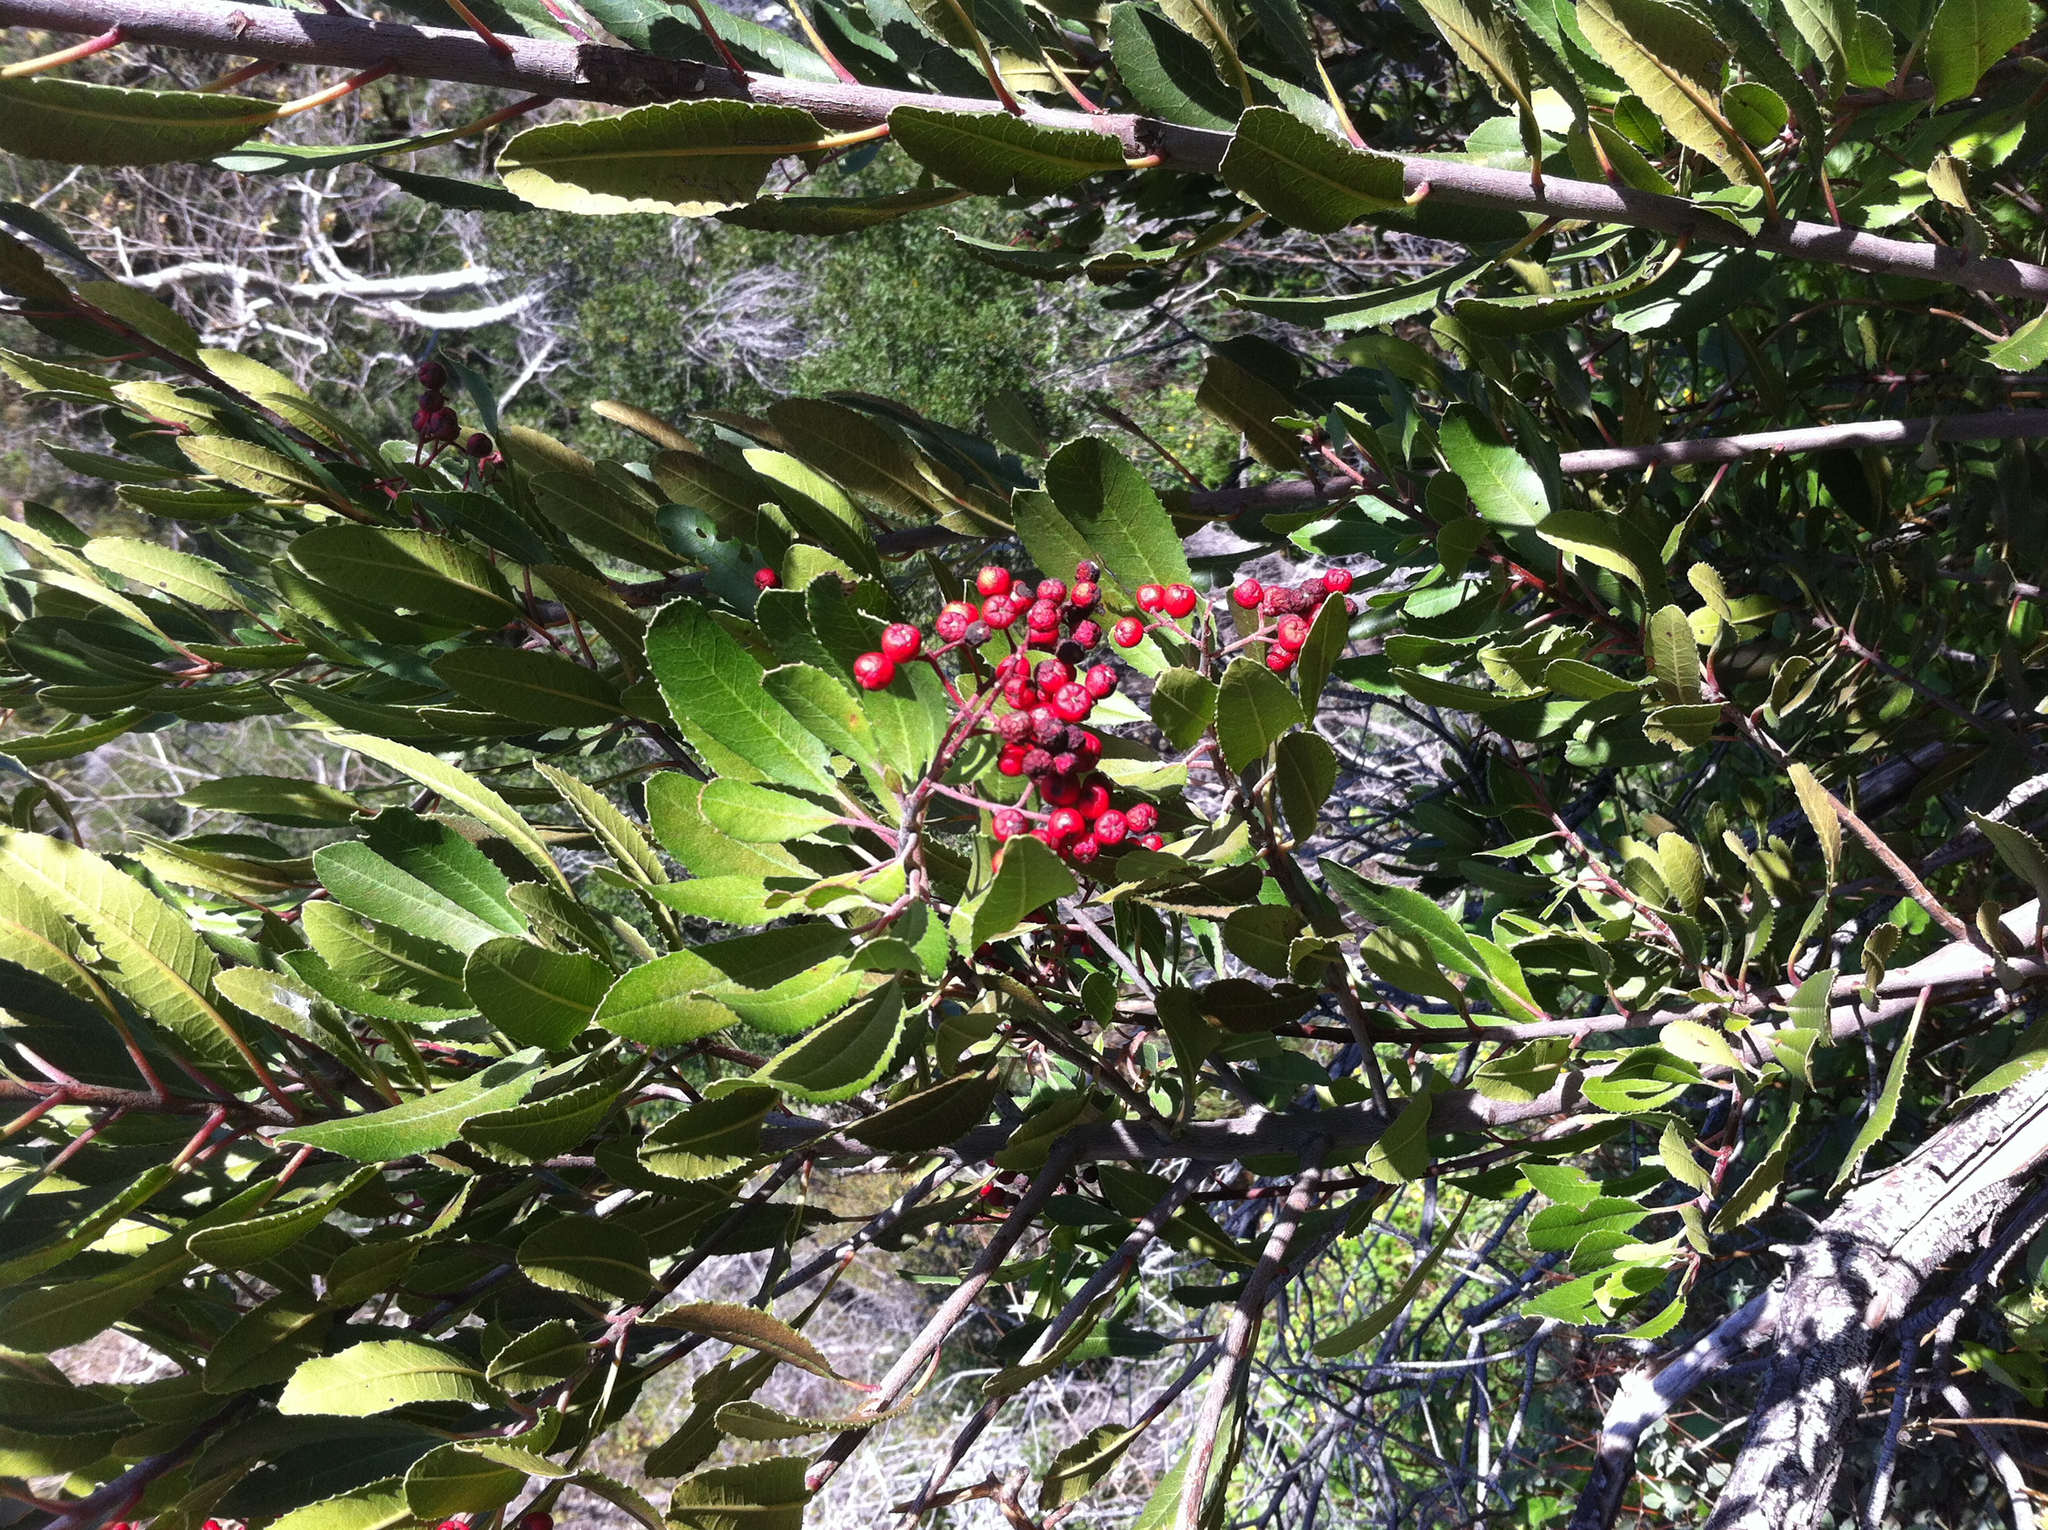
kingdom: Plantae
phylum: Tracheophyta
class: Magnoliopsida
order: Rosales
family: Rosaceae
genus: Heteromeles
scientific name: Heteromeles arbutifolia
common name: California-holly
